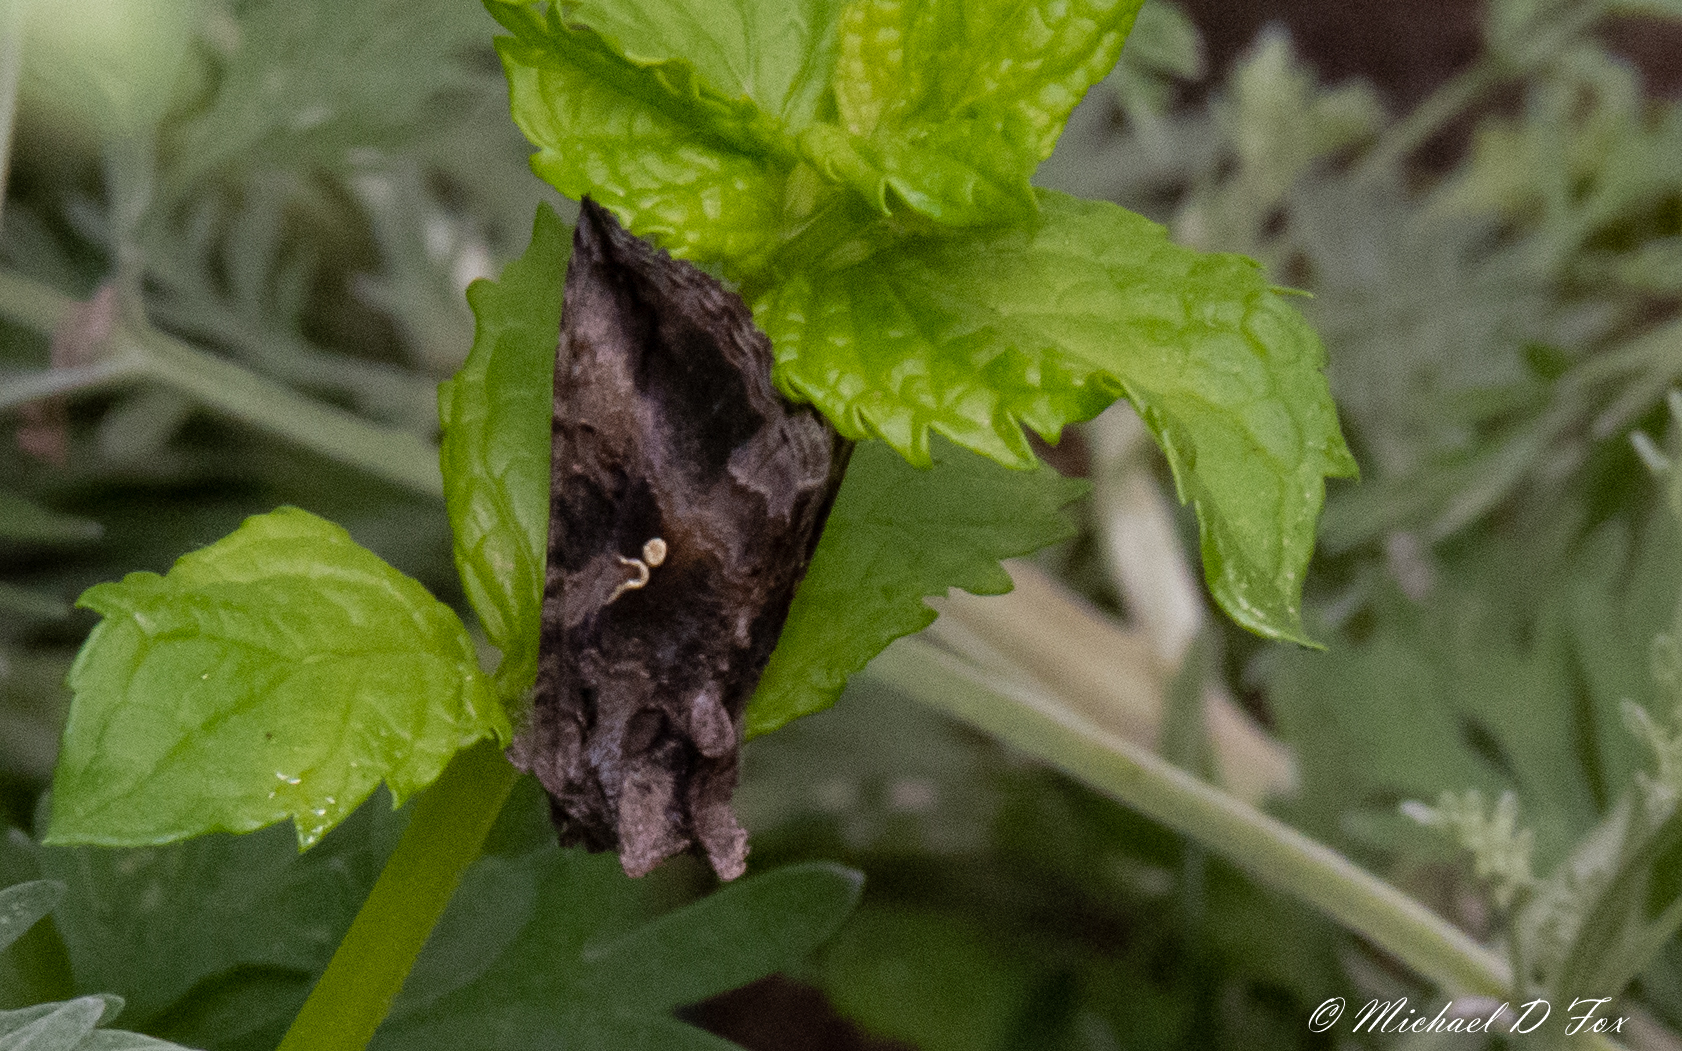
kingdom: Animalia
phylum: Arthropoda
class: Insecta
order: Lepidoptera
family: Noctuidae
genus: Rachiplusia
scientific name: Rachiplusia ou
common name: Gray looper moth
